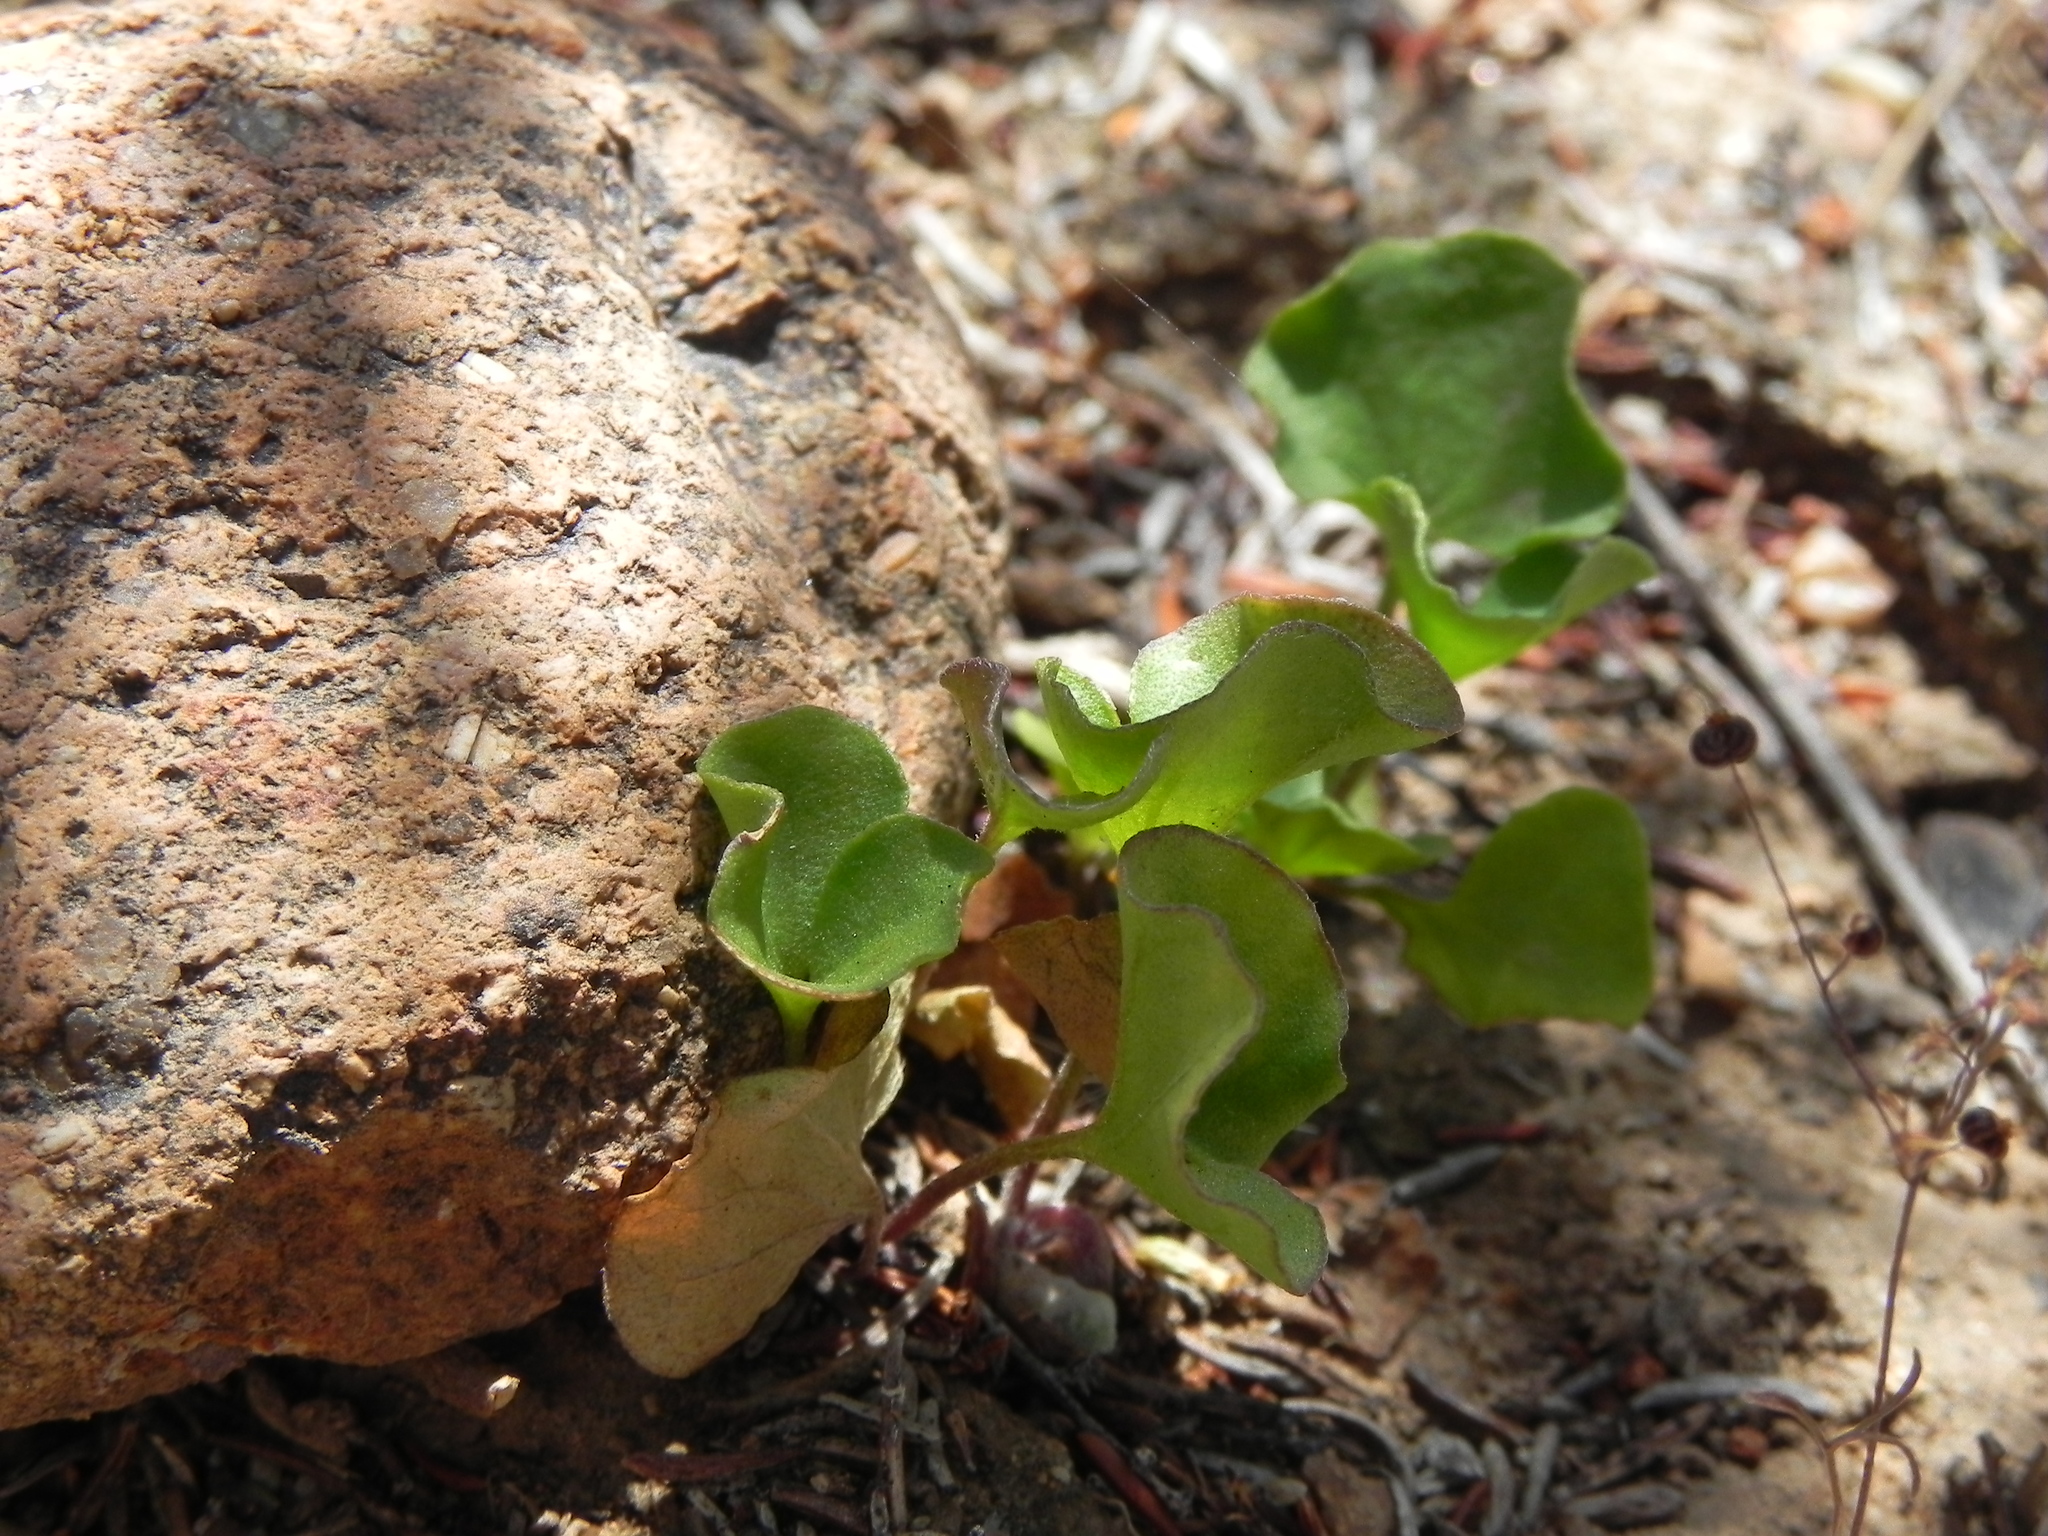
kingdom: Plantae
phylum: Tracheophyta
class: Magnoliopsida
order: Solanales
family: Convolvulaceae
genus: Dichondra
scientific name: Dichondra occidentalis
